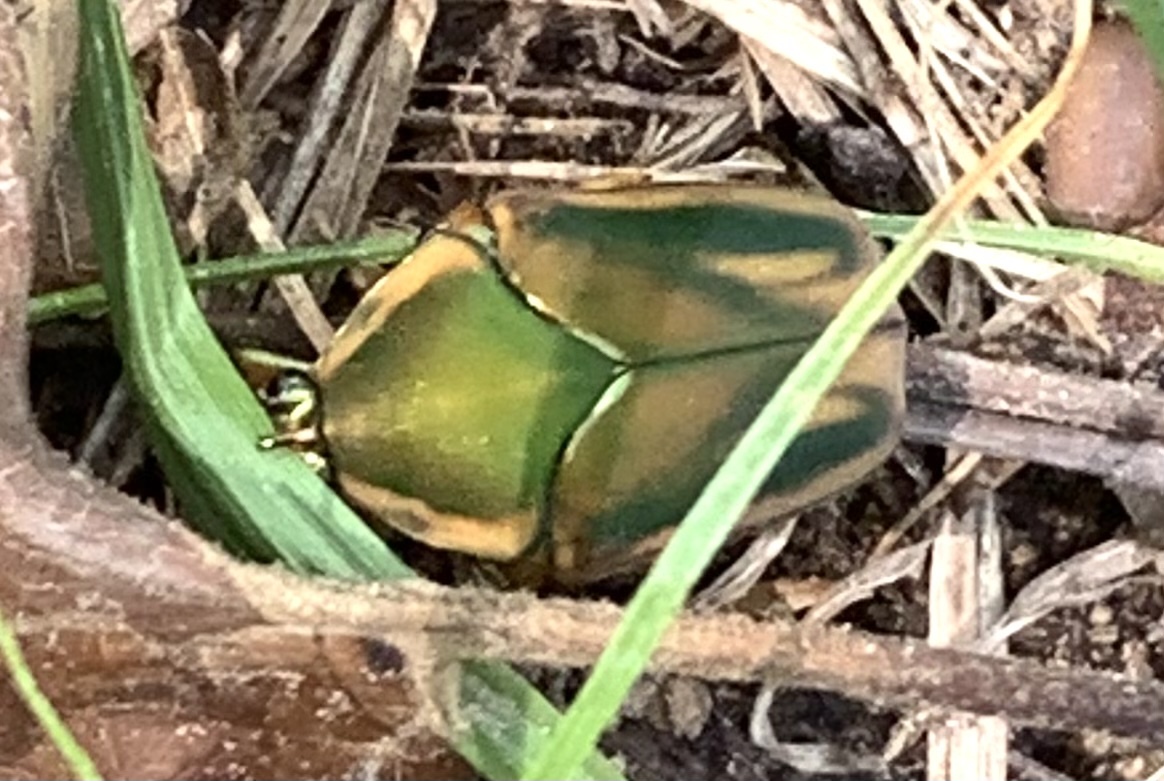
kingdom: Animalia
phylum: Arthropoda
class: Insecta
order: Coleoptera
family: Scarabaeidae
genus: Cotinis
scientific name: Cotinis nitida
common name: Common green june beetle
